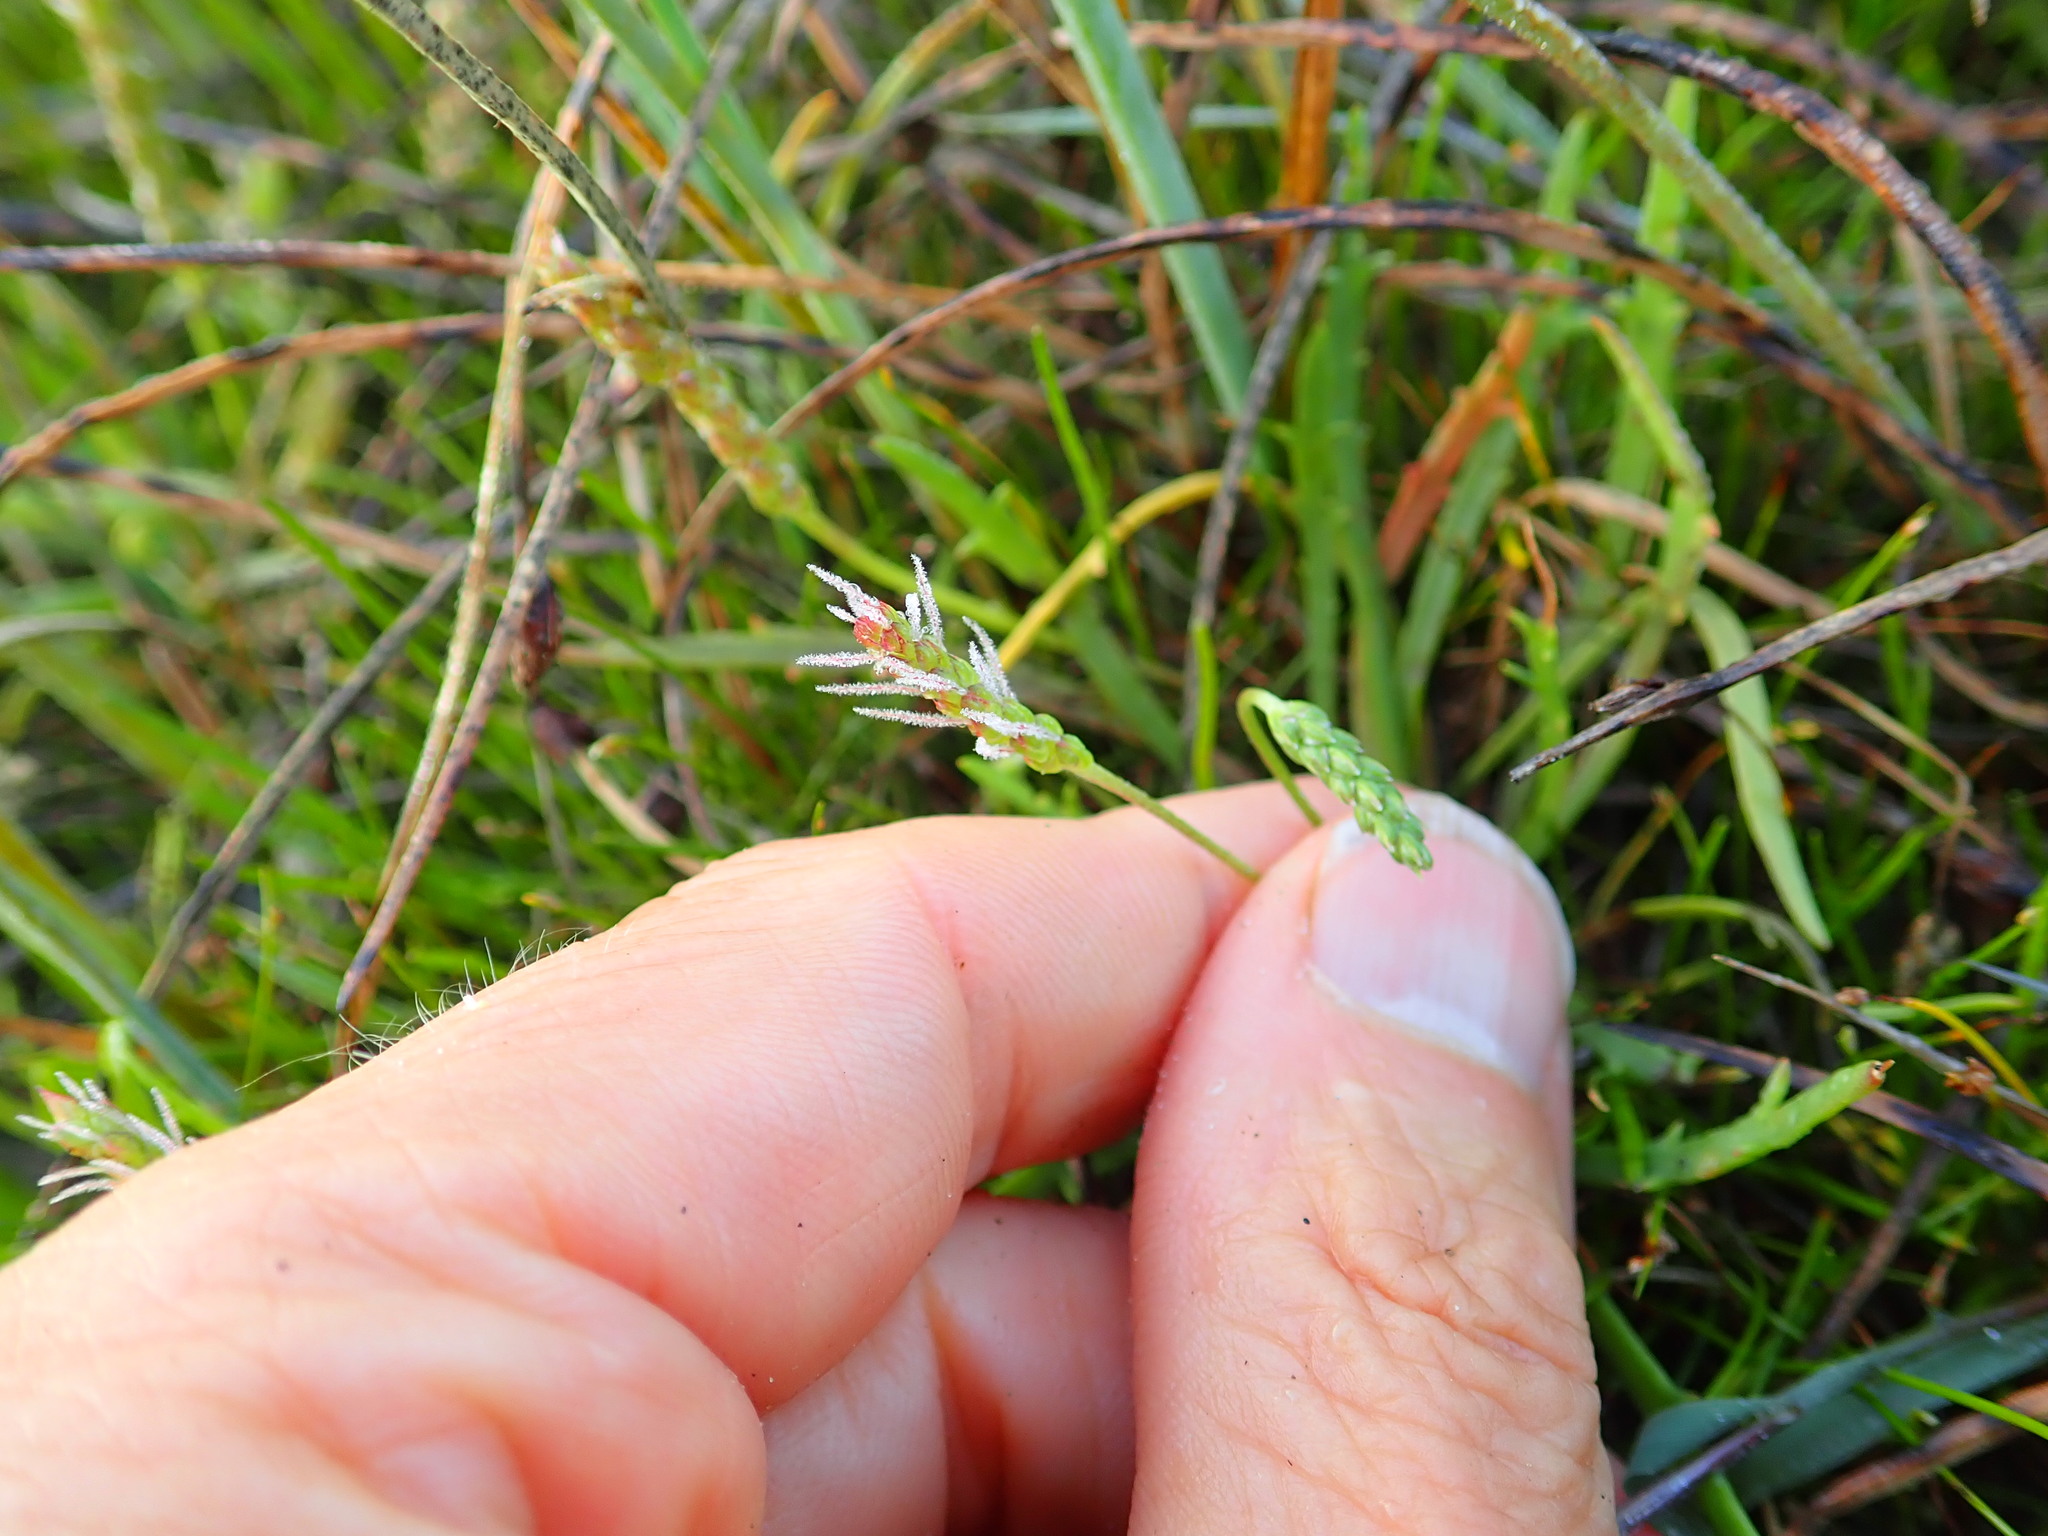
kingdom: Plantae
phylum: Tracheophyta
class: Magnoliopsida
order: Lamiales
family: Plantaginaceae
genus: Plantago
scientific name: Plantago coronopus
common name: Buck's-horn plantain
